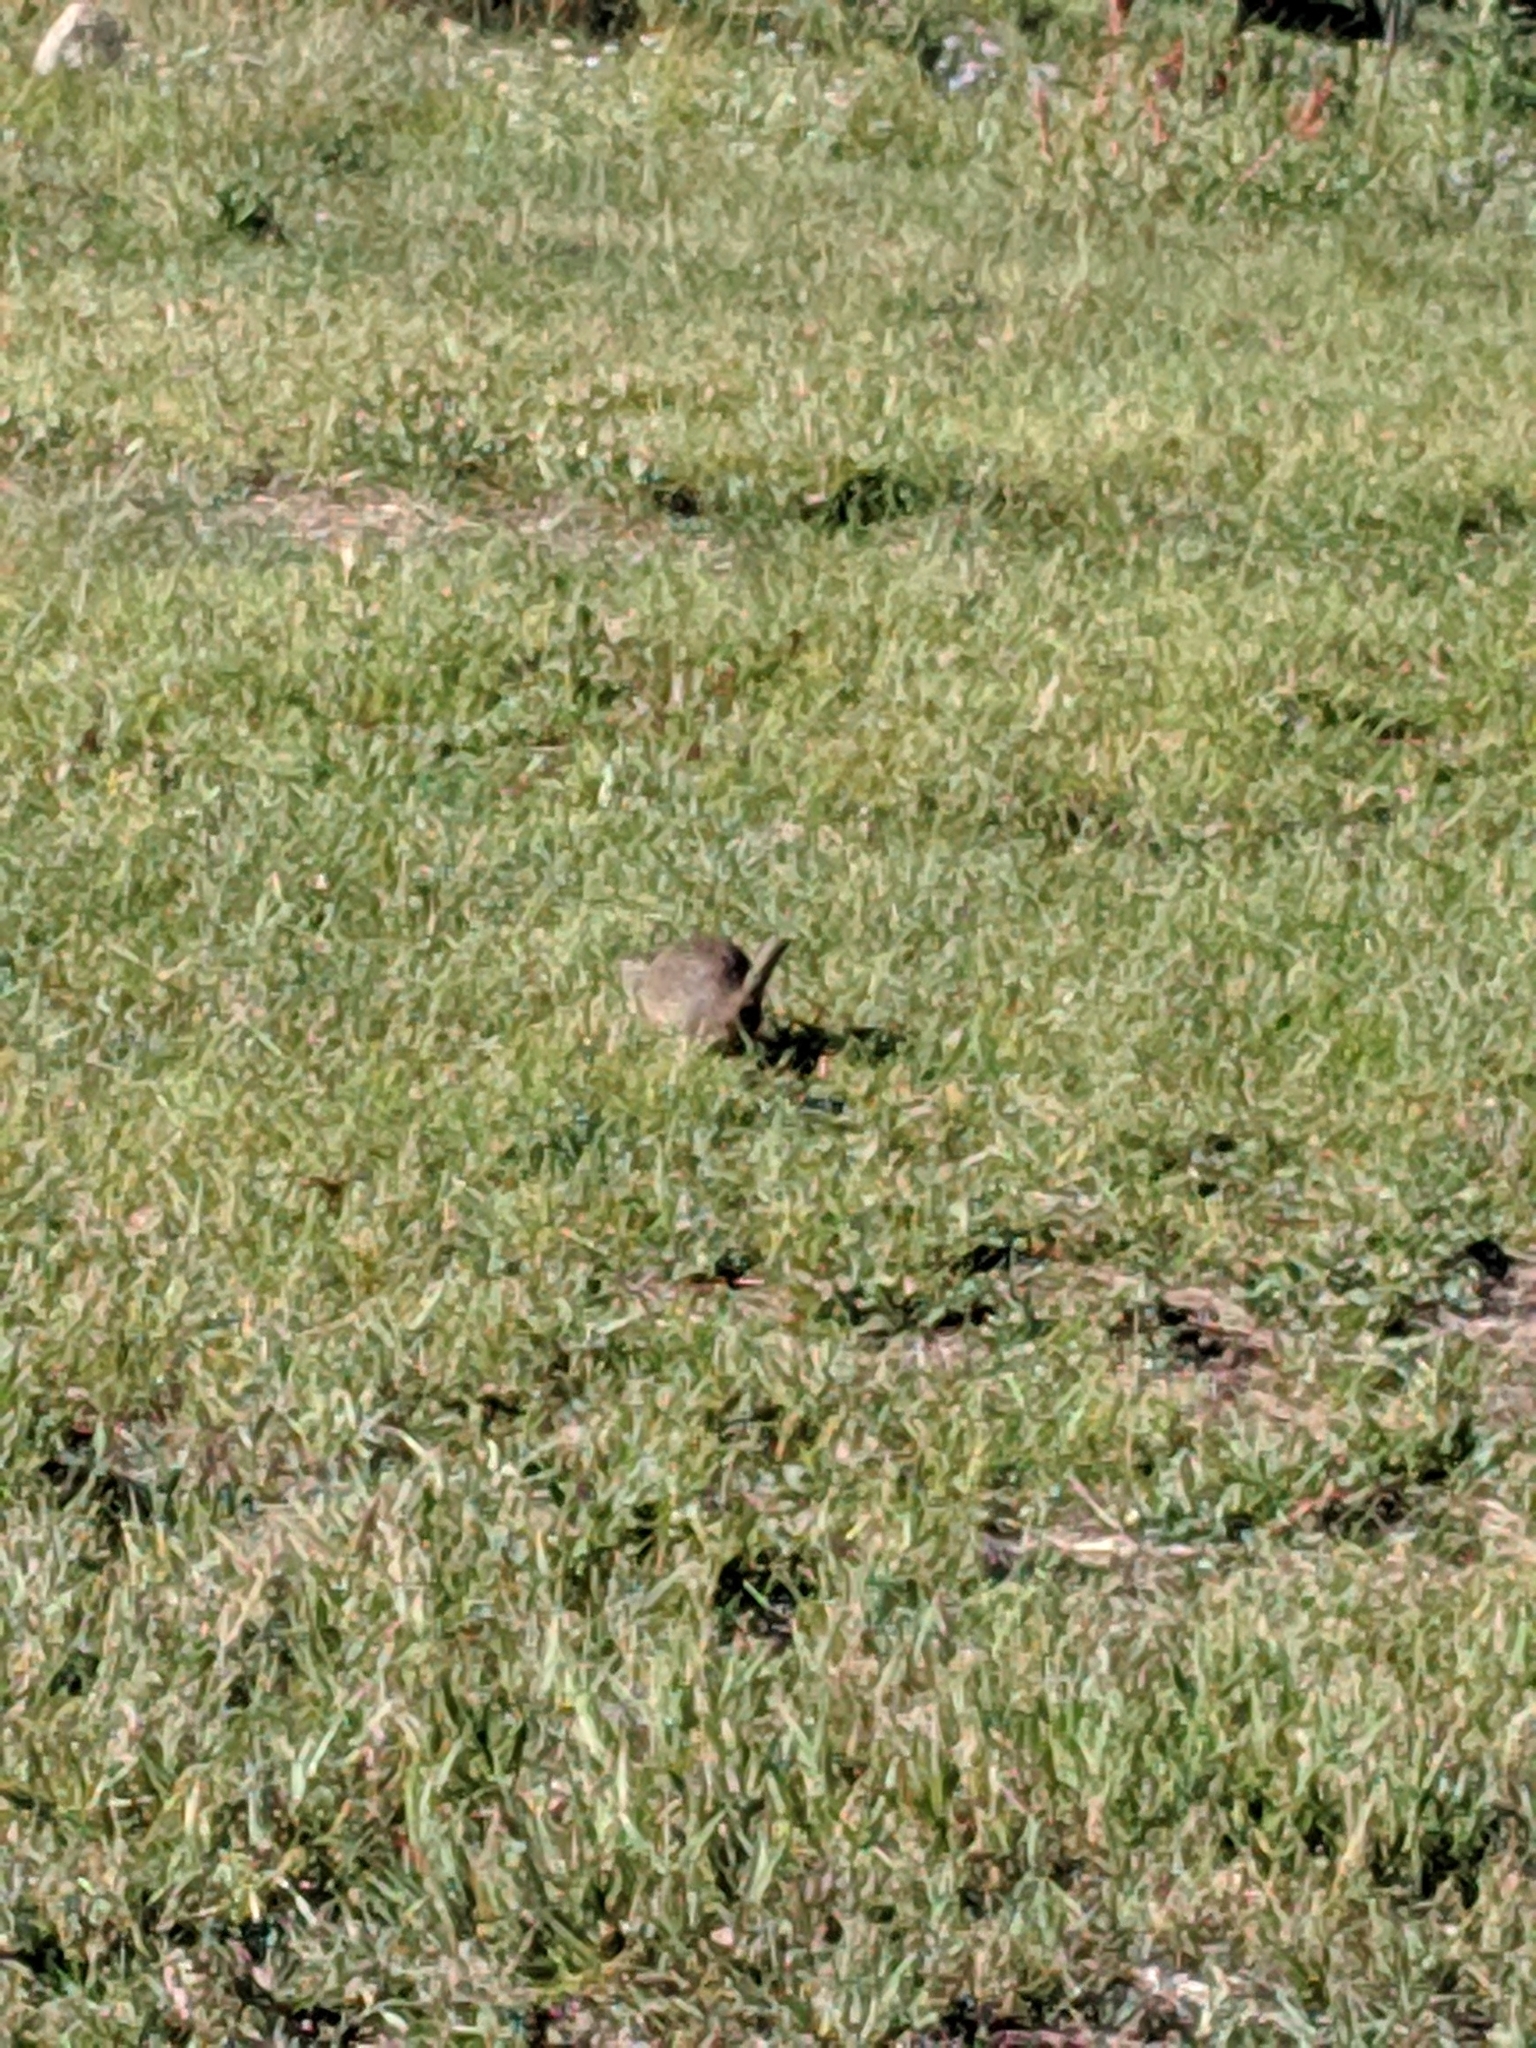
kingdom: Animalia
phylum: Chordata
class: Mammalia
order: Rodentia
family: Sciuridae
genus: Urocitellus
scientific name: Urocitellus armatus
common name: Uinta ground squirrel
